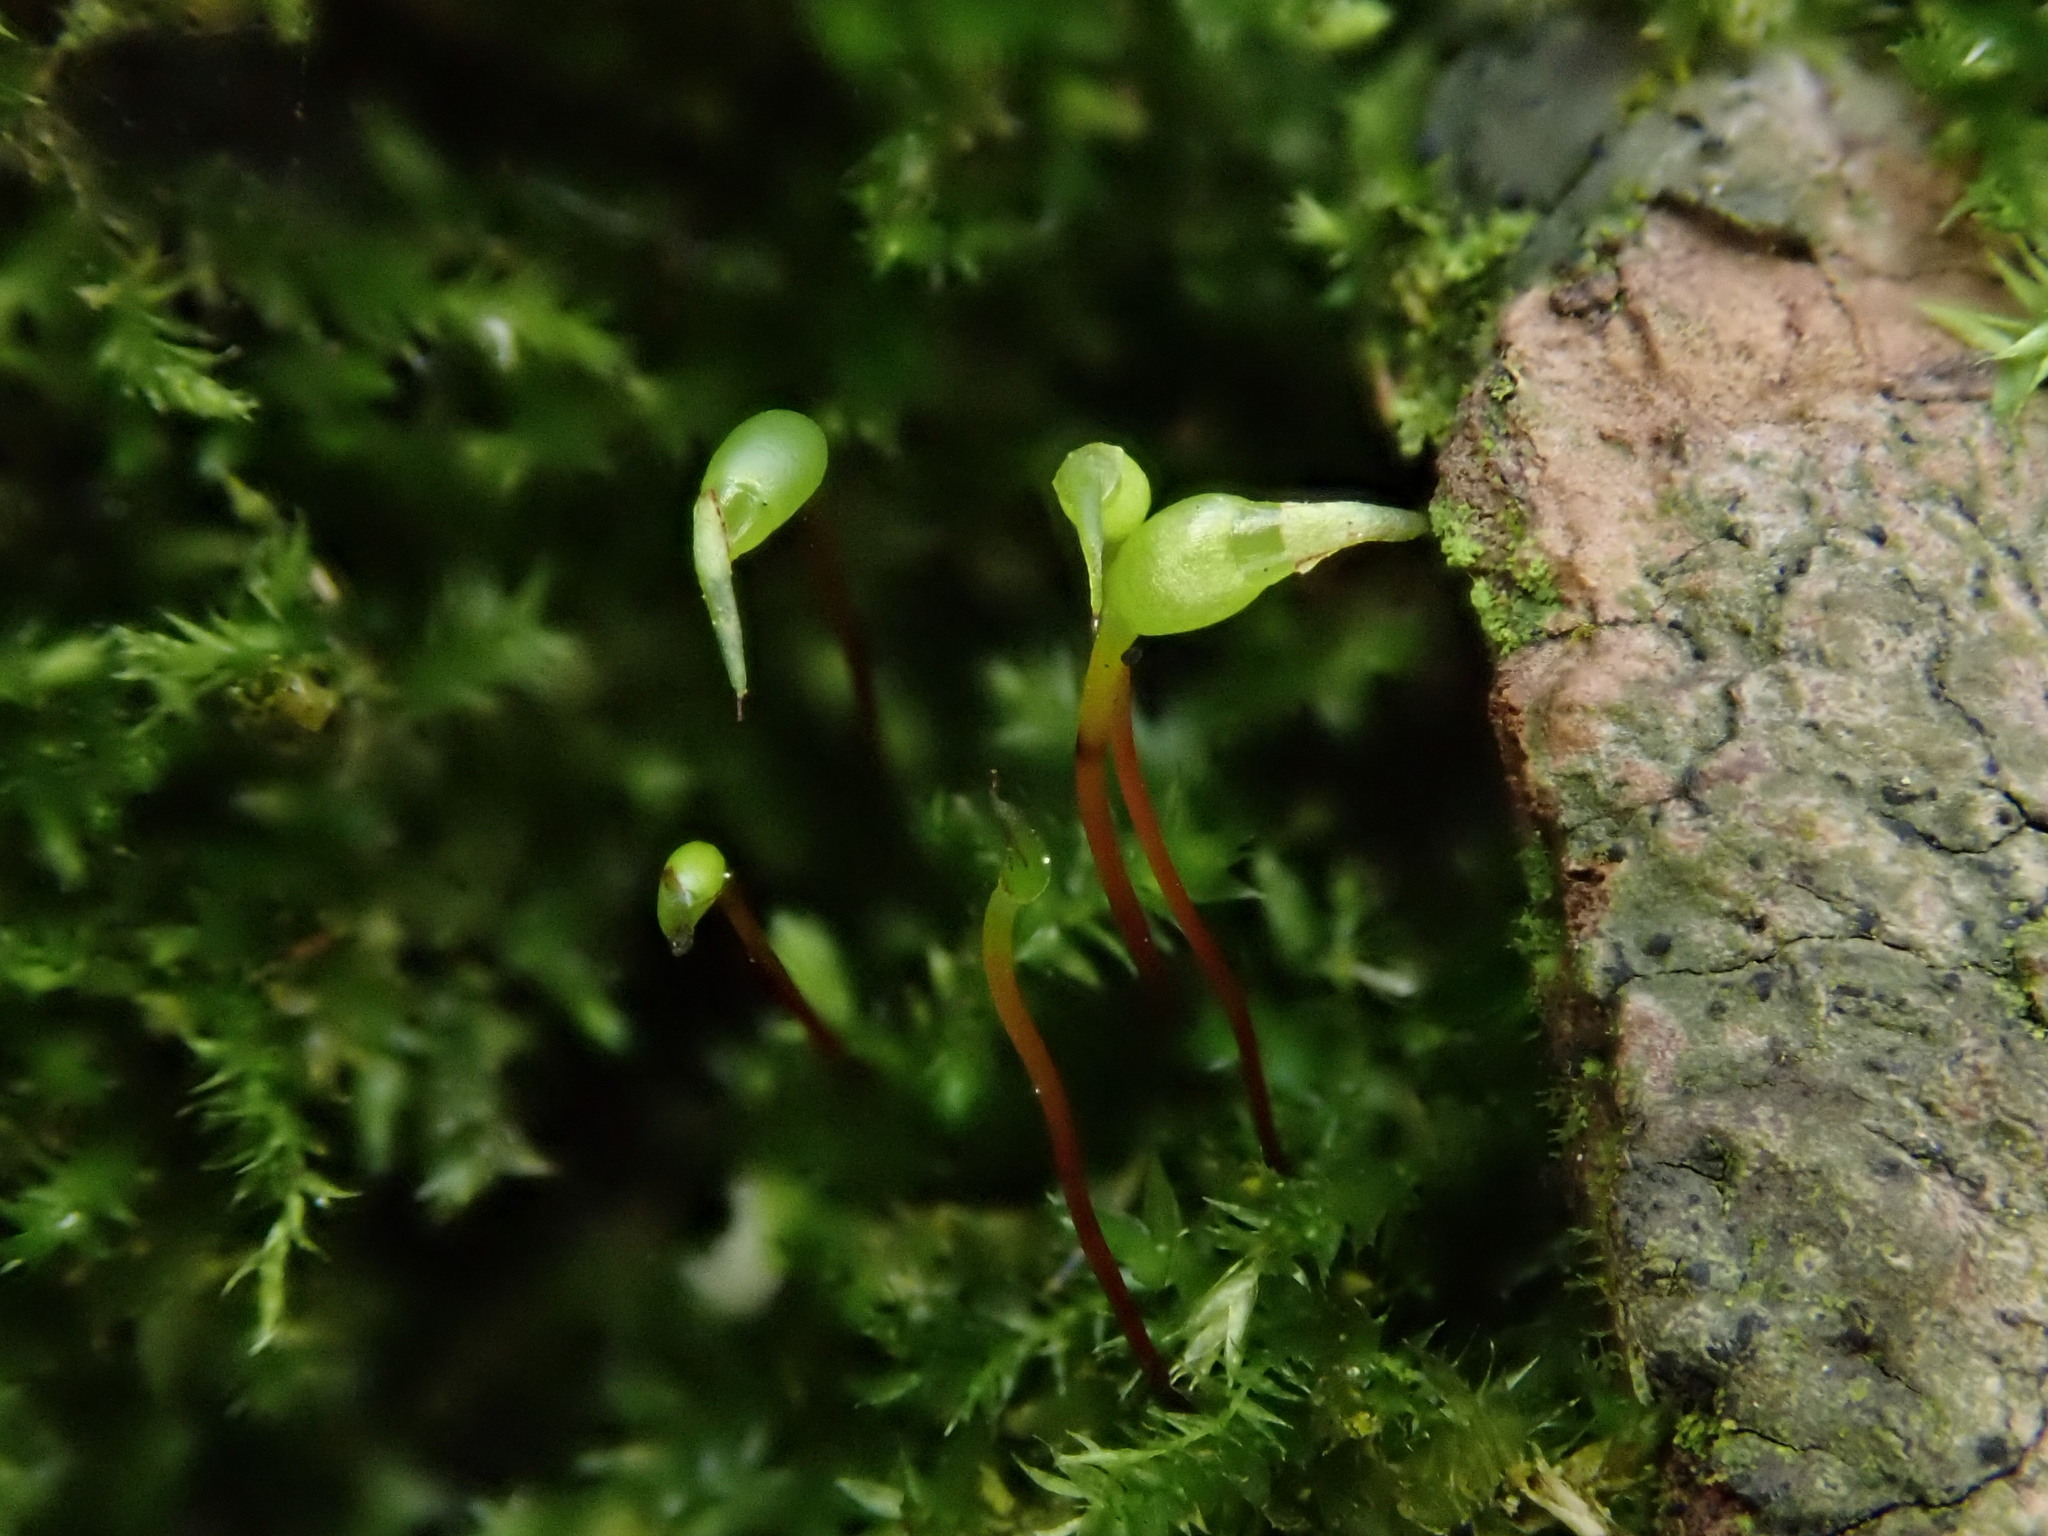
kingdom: Plantae
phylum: Bryophyta
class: Bryopsida
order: Hypnales
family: Brachytheciaceae
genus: Rhynchostegium
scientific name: Rhynchostegium confertum
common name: Clustered feather-moss
